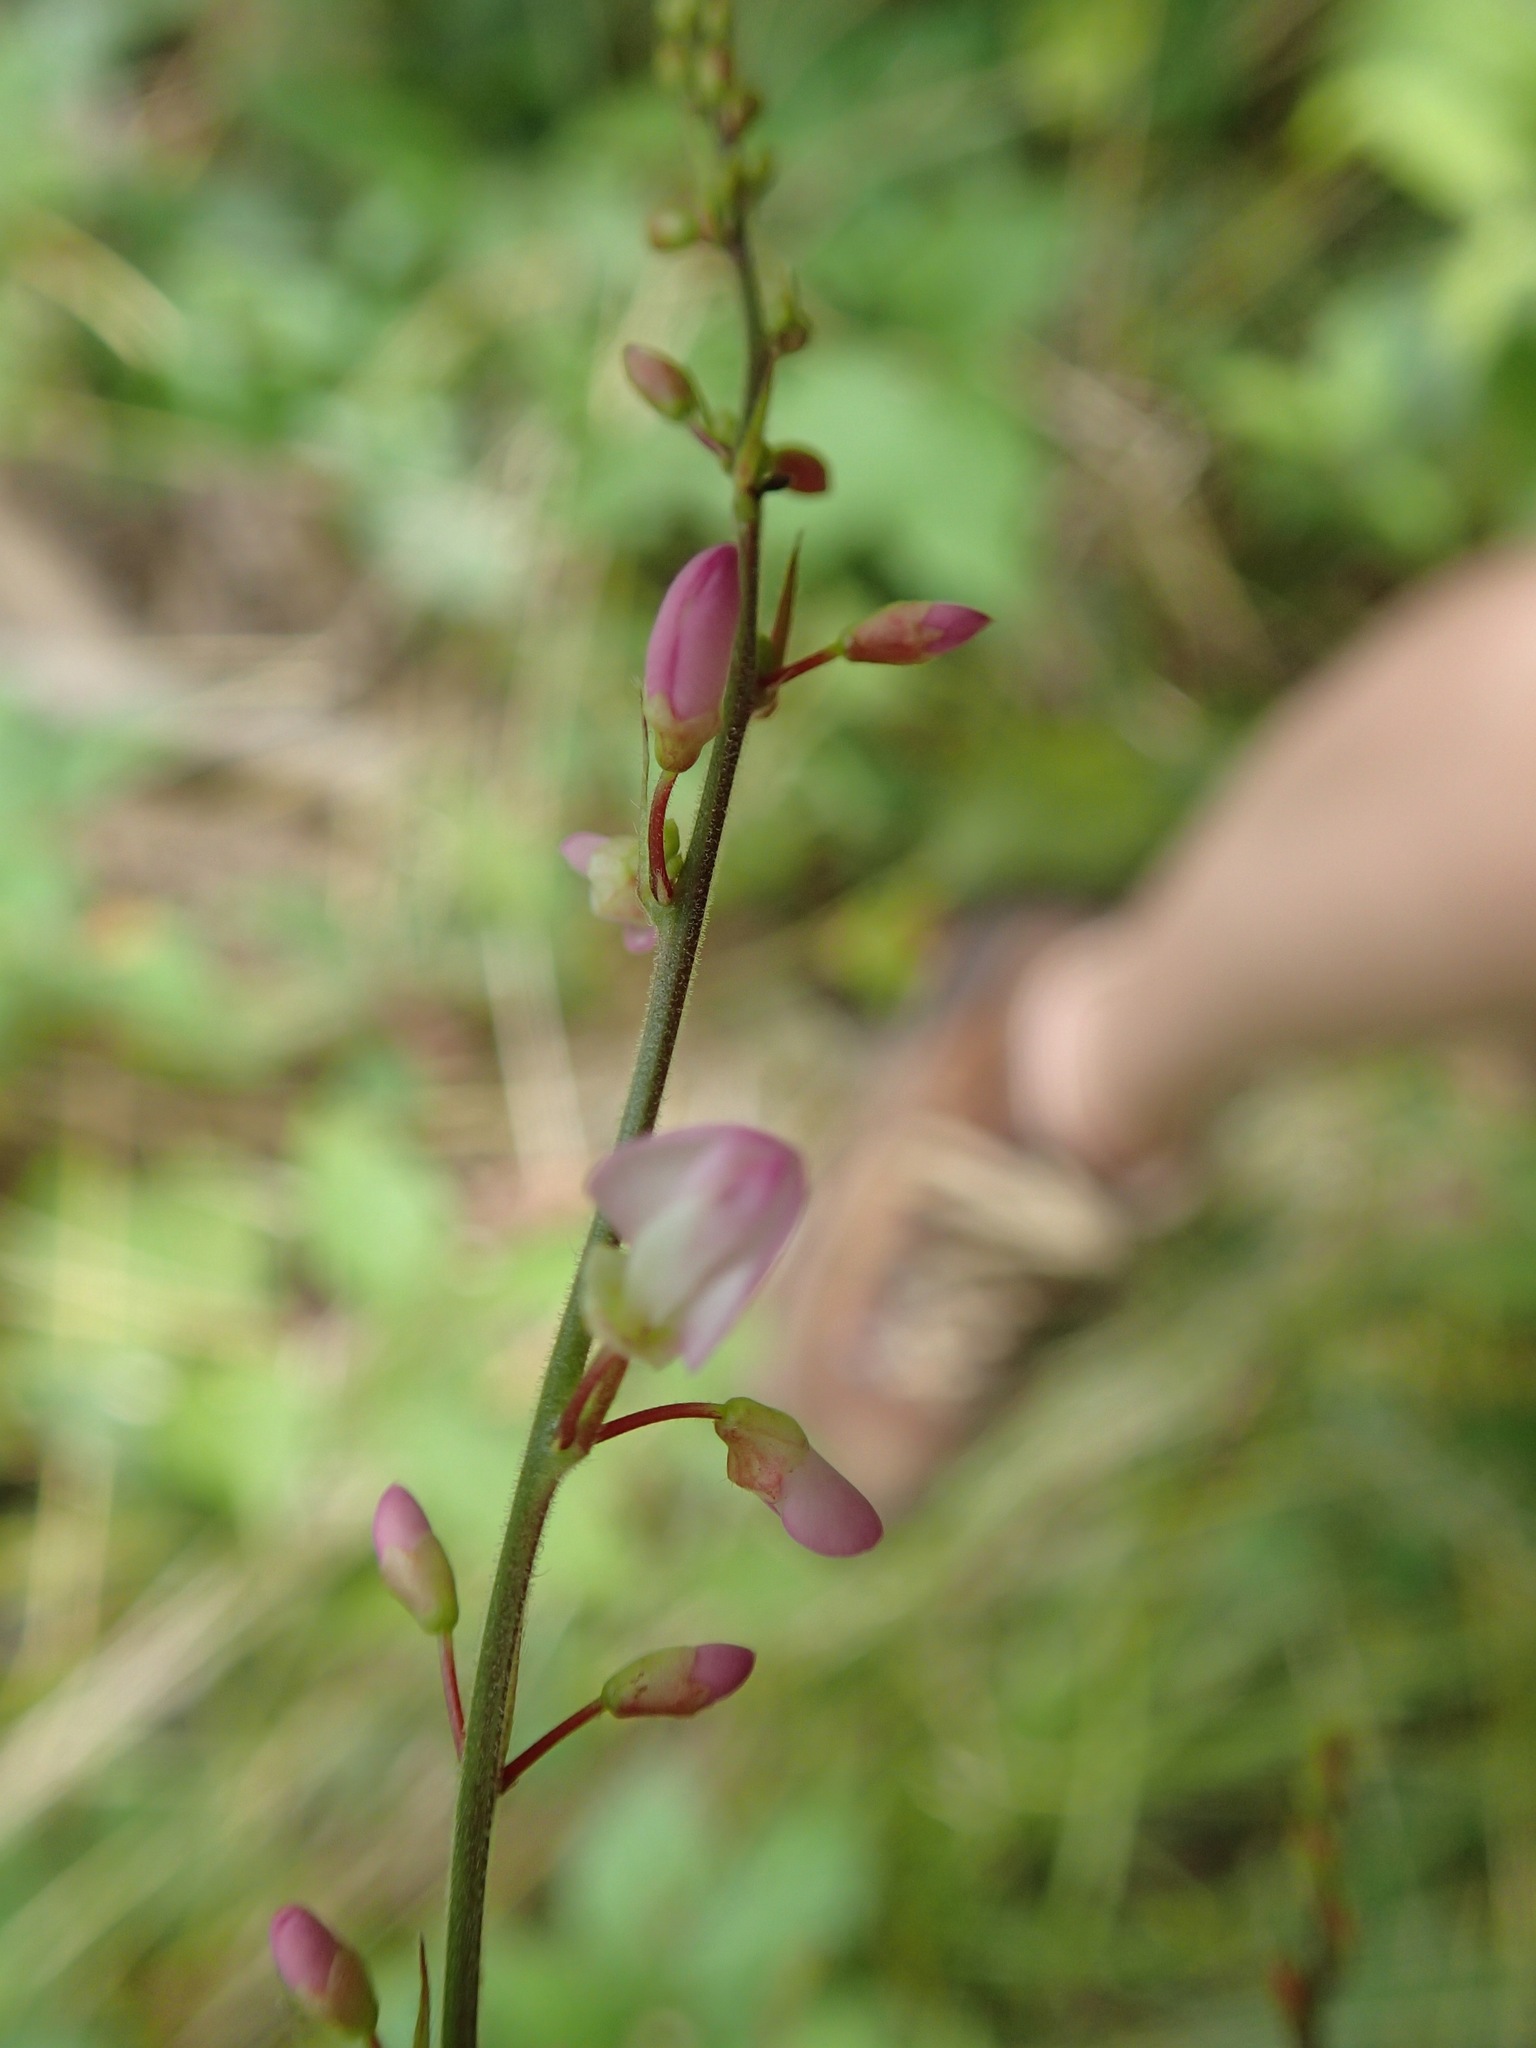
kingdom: Plantae
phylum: Tracheophyta
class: Magnoliopsida
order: Fabales
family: Fabaceae
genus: Hylodesmum
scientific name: Hylodesmum glutinosum
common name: Clustered-leaved tick-trefoil
